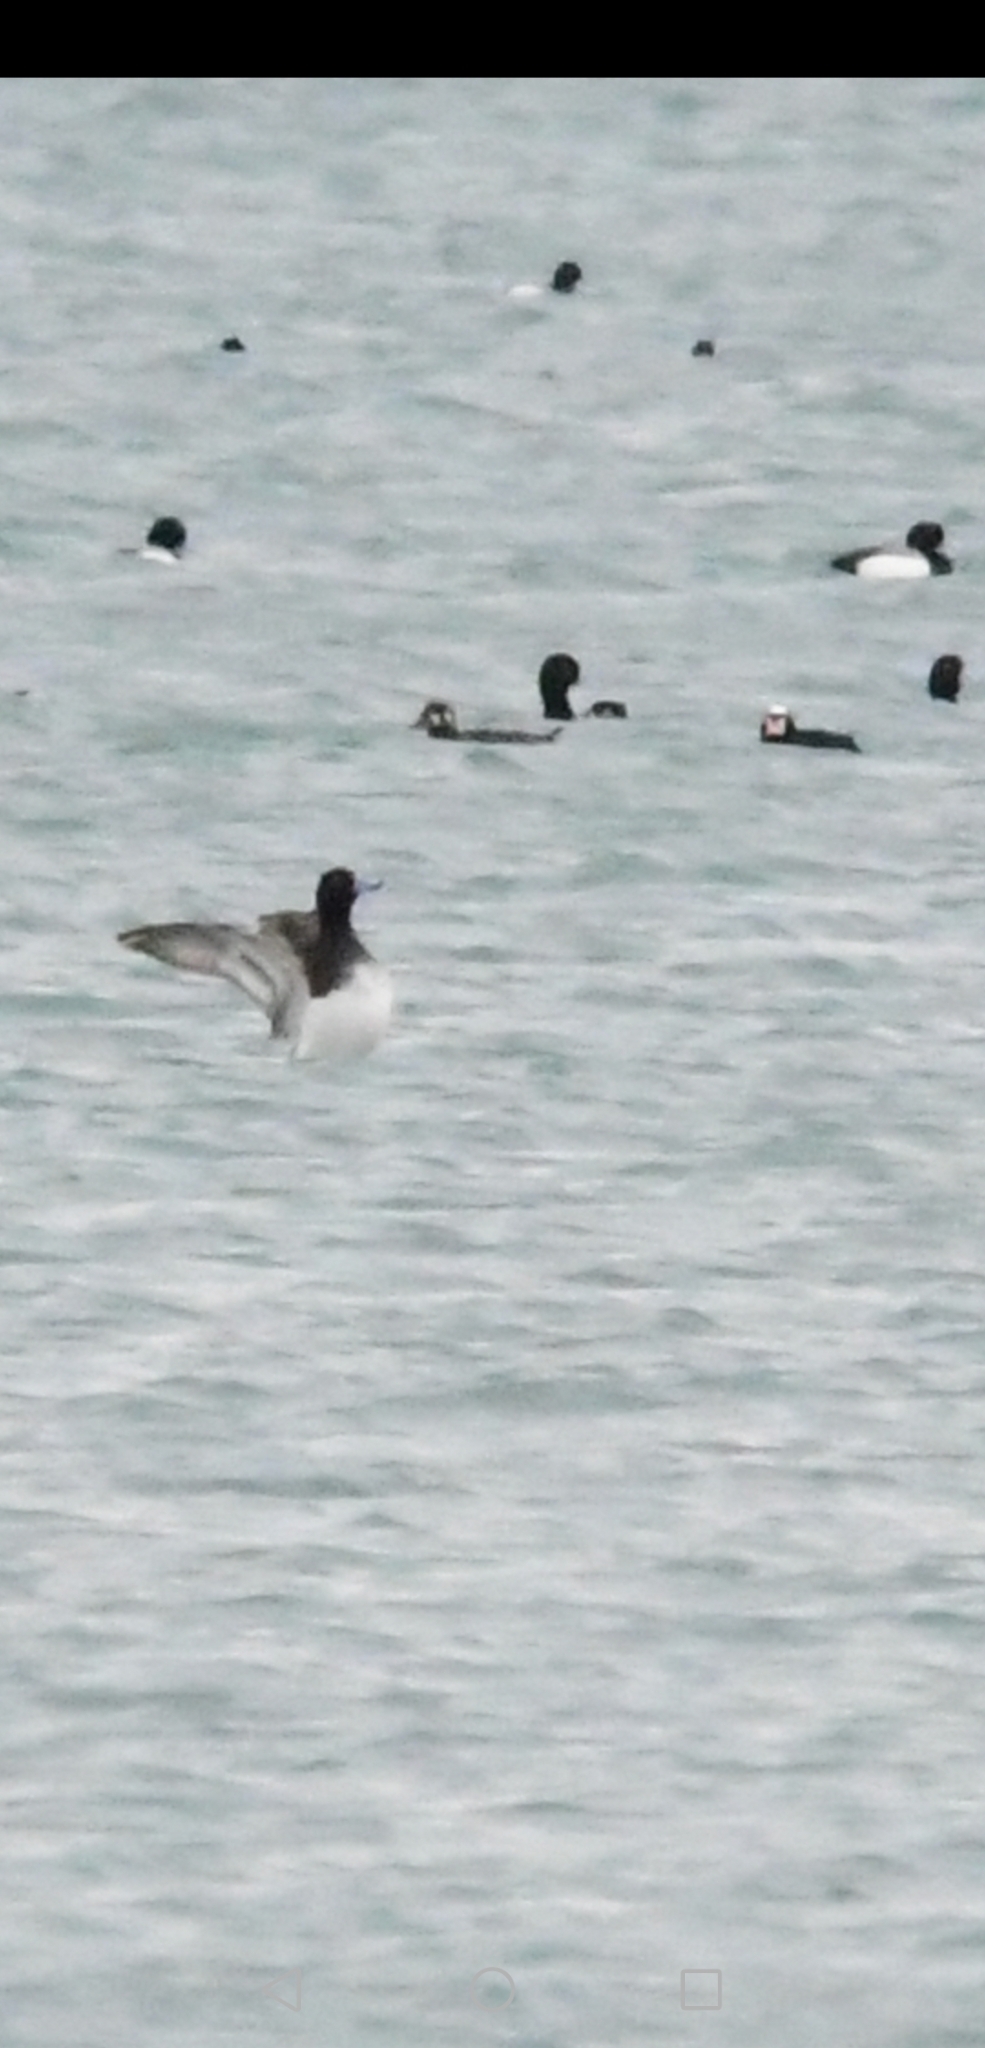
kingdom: Animalia
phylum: Chordata
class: Aves
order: Anseriformes
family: Anatidae
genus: Aythya
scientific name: Aythya marila
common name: Greater scaup
